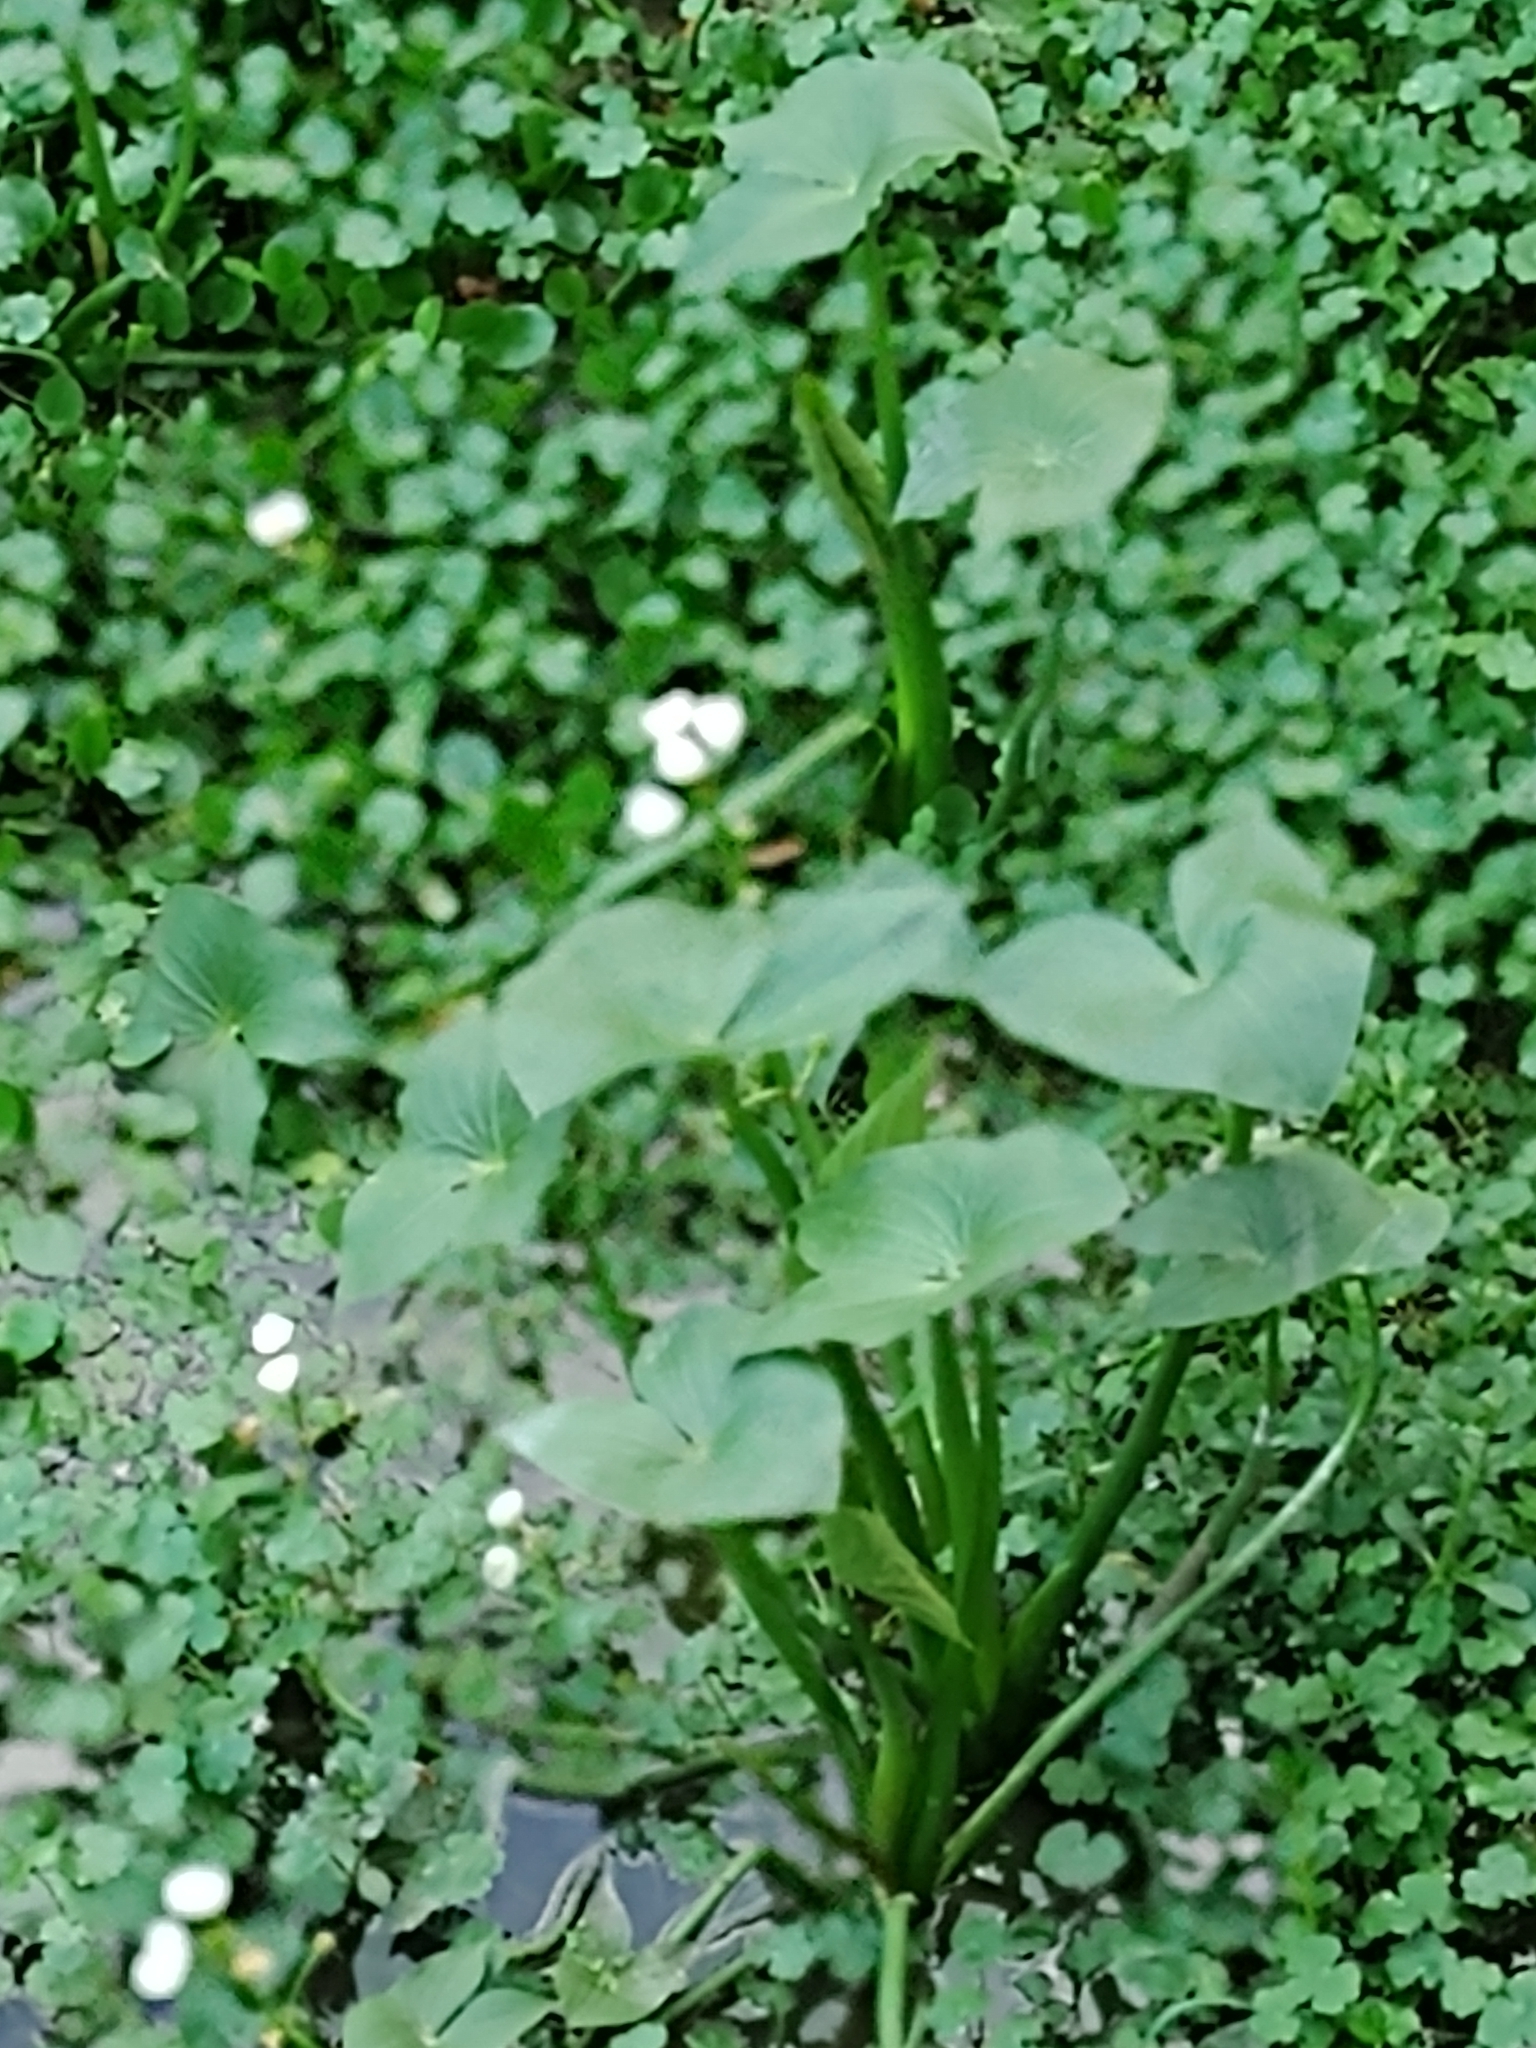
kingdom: Plantae
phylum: Tracheophyta
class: Liliopsida
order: Alismatales
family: Alismataceae
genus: Sagittaria
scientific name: Sagittaria montevidensis
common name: Giant arrowhead
